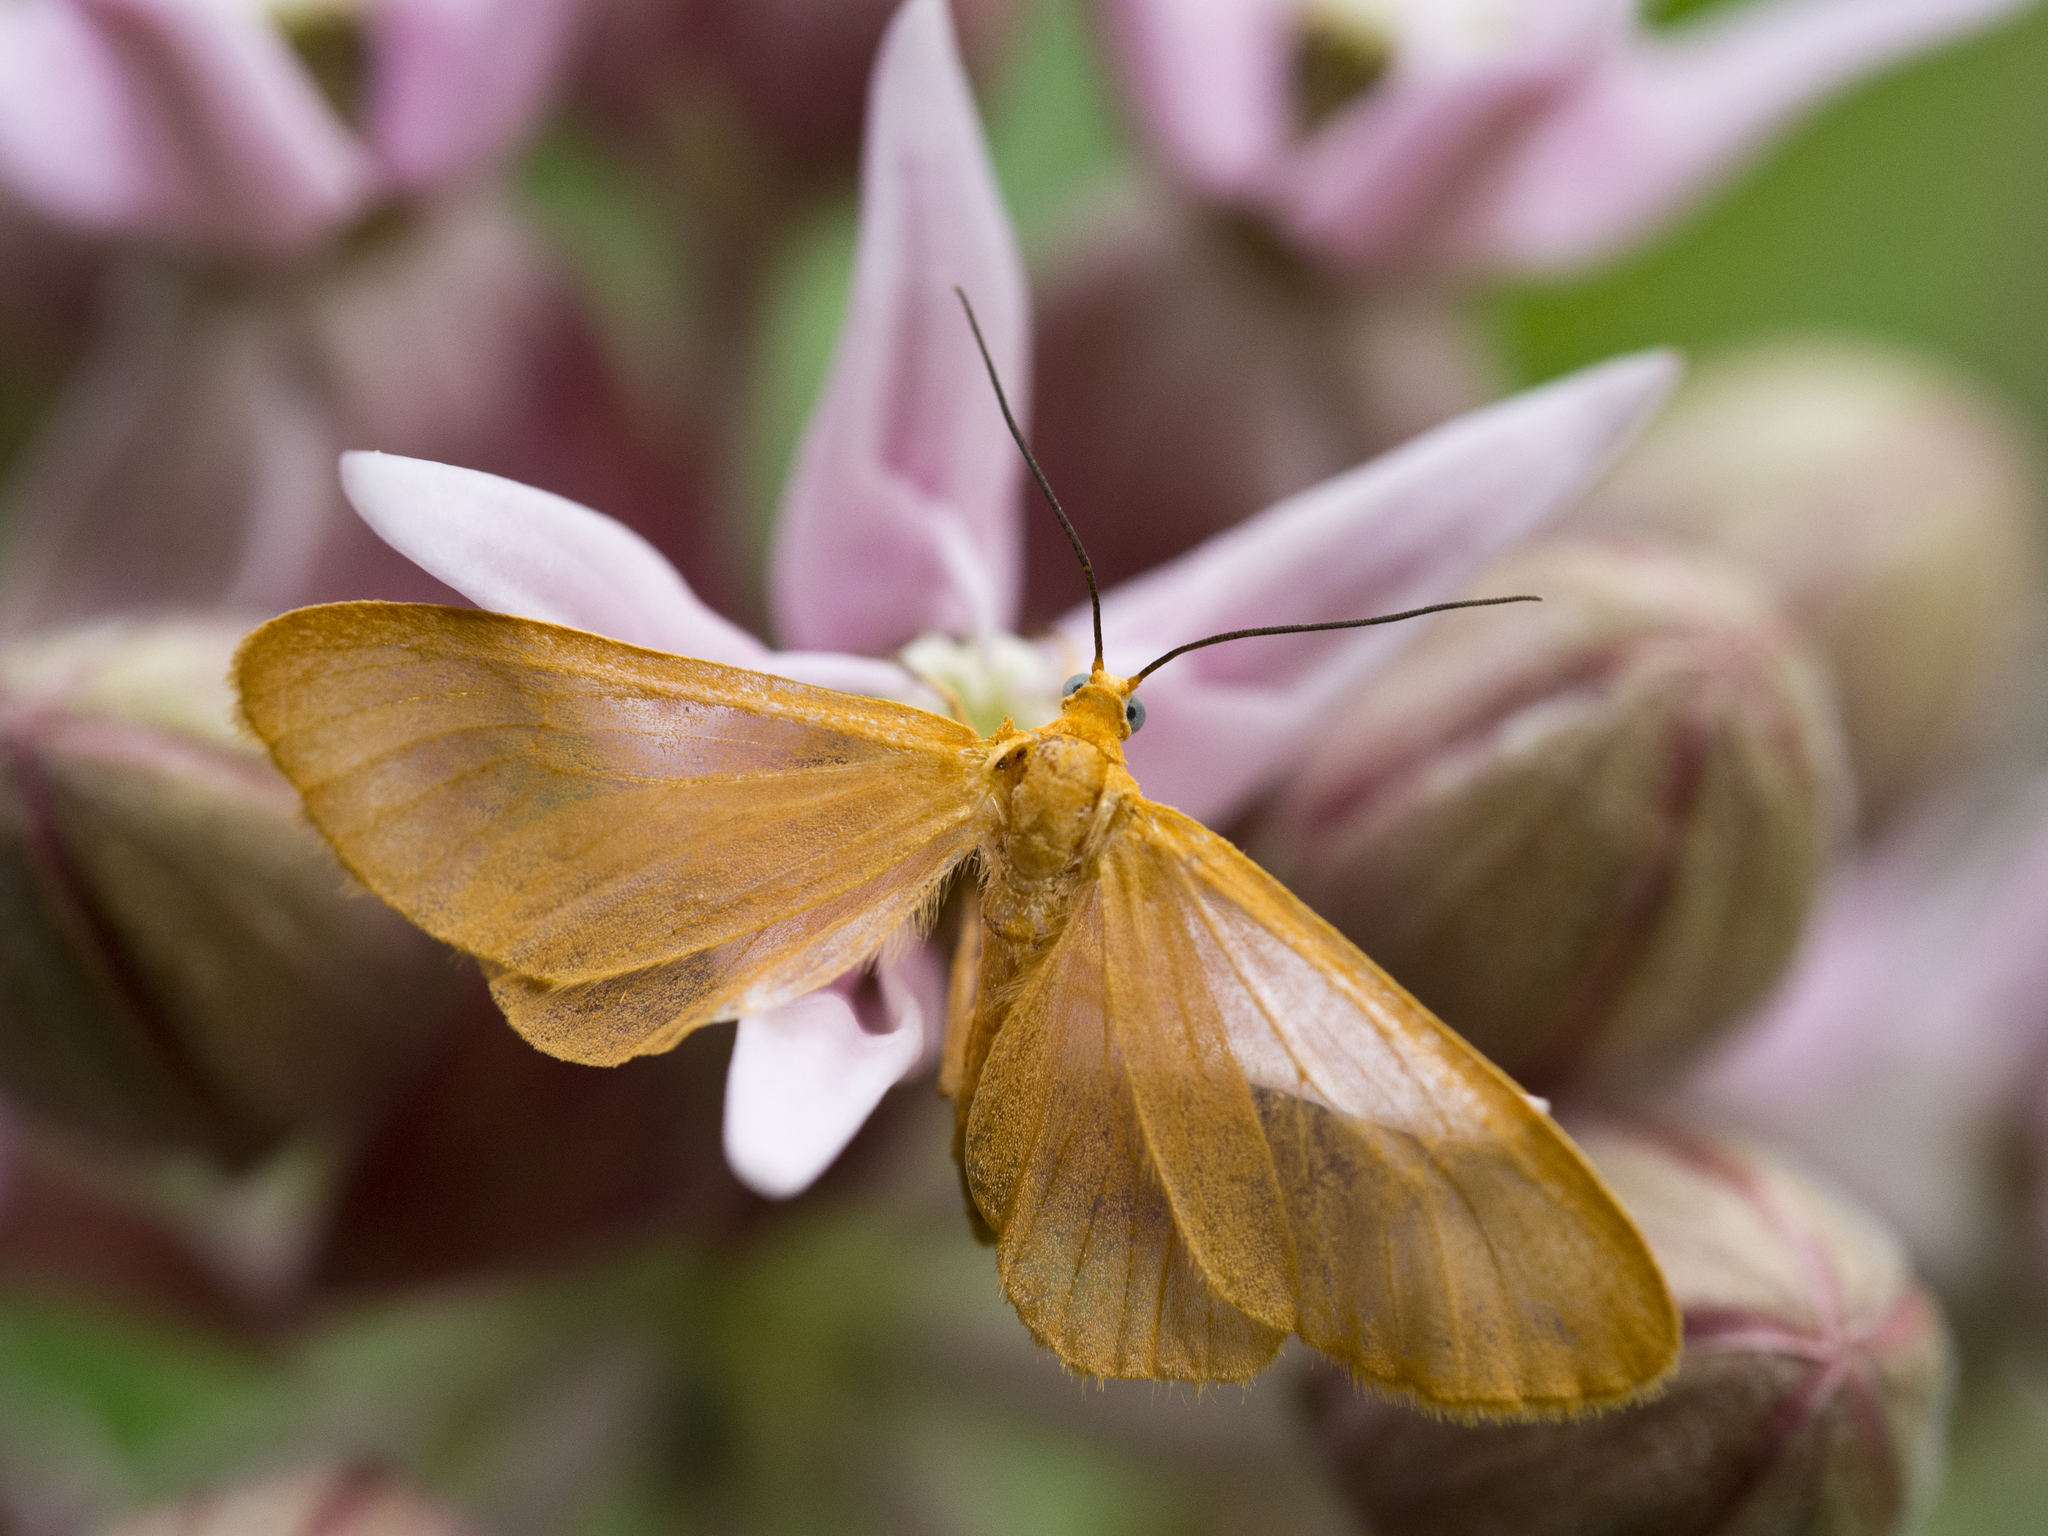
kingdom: Animalia
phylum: Arthropoda
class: Insecta
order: Lepidoptera
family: Geometridae
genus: Eubaphe
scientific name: Eubaphe unicolor
